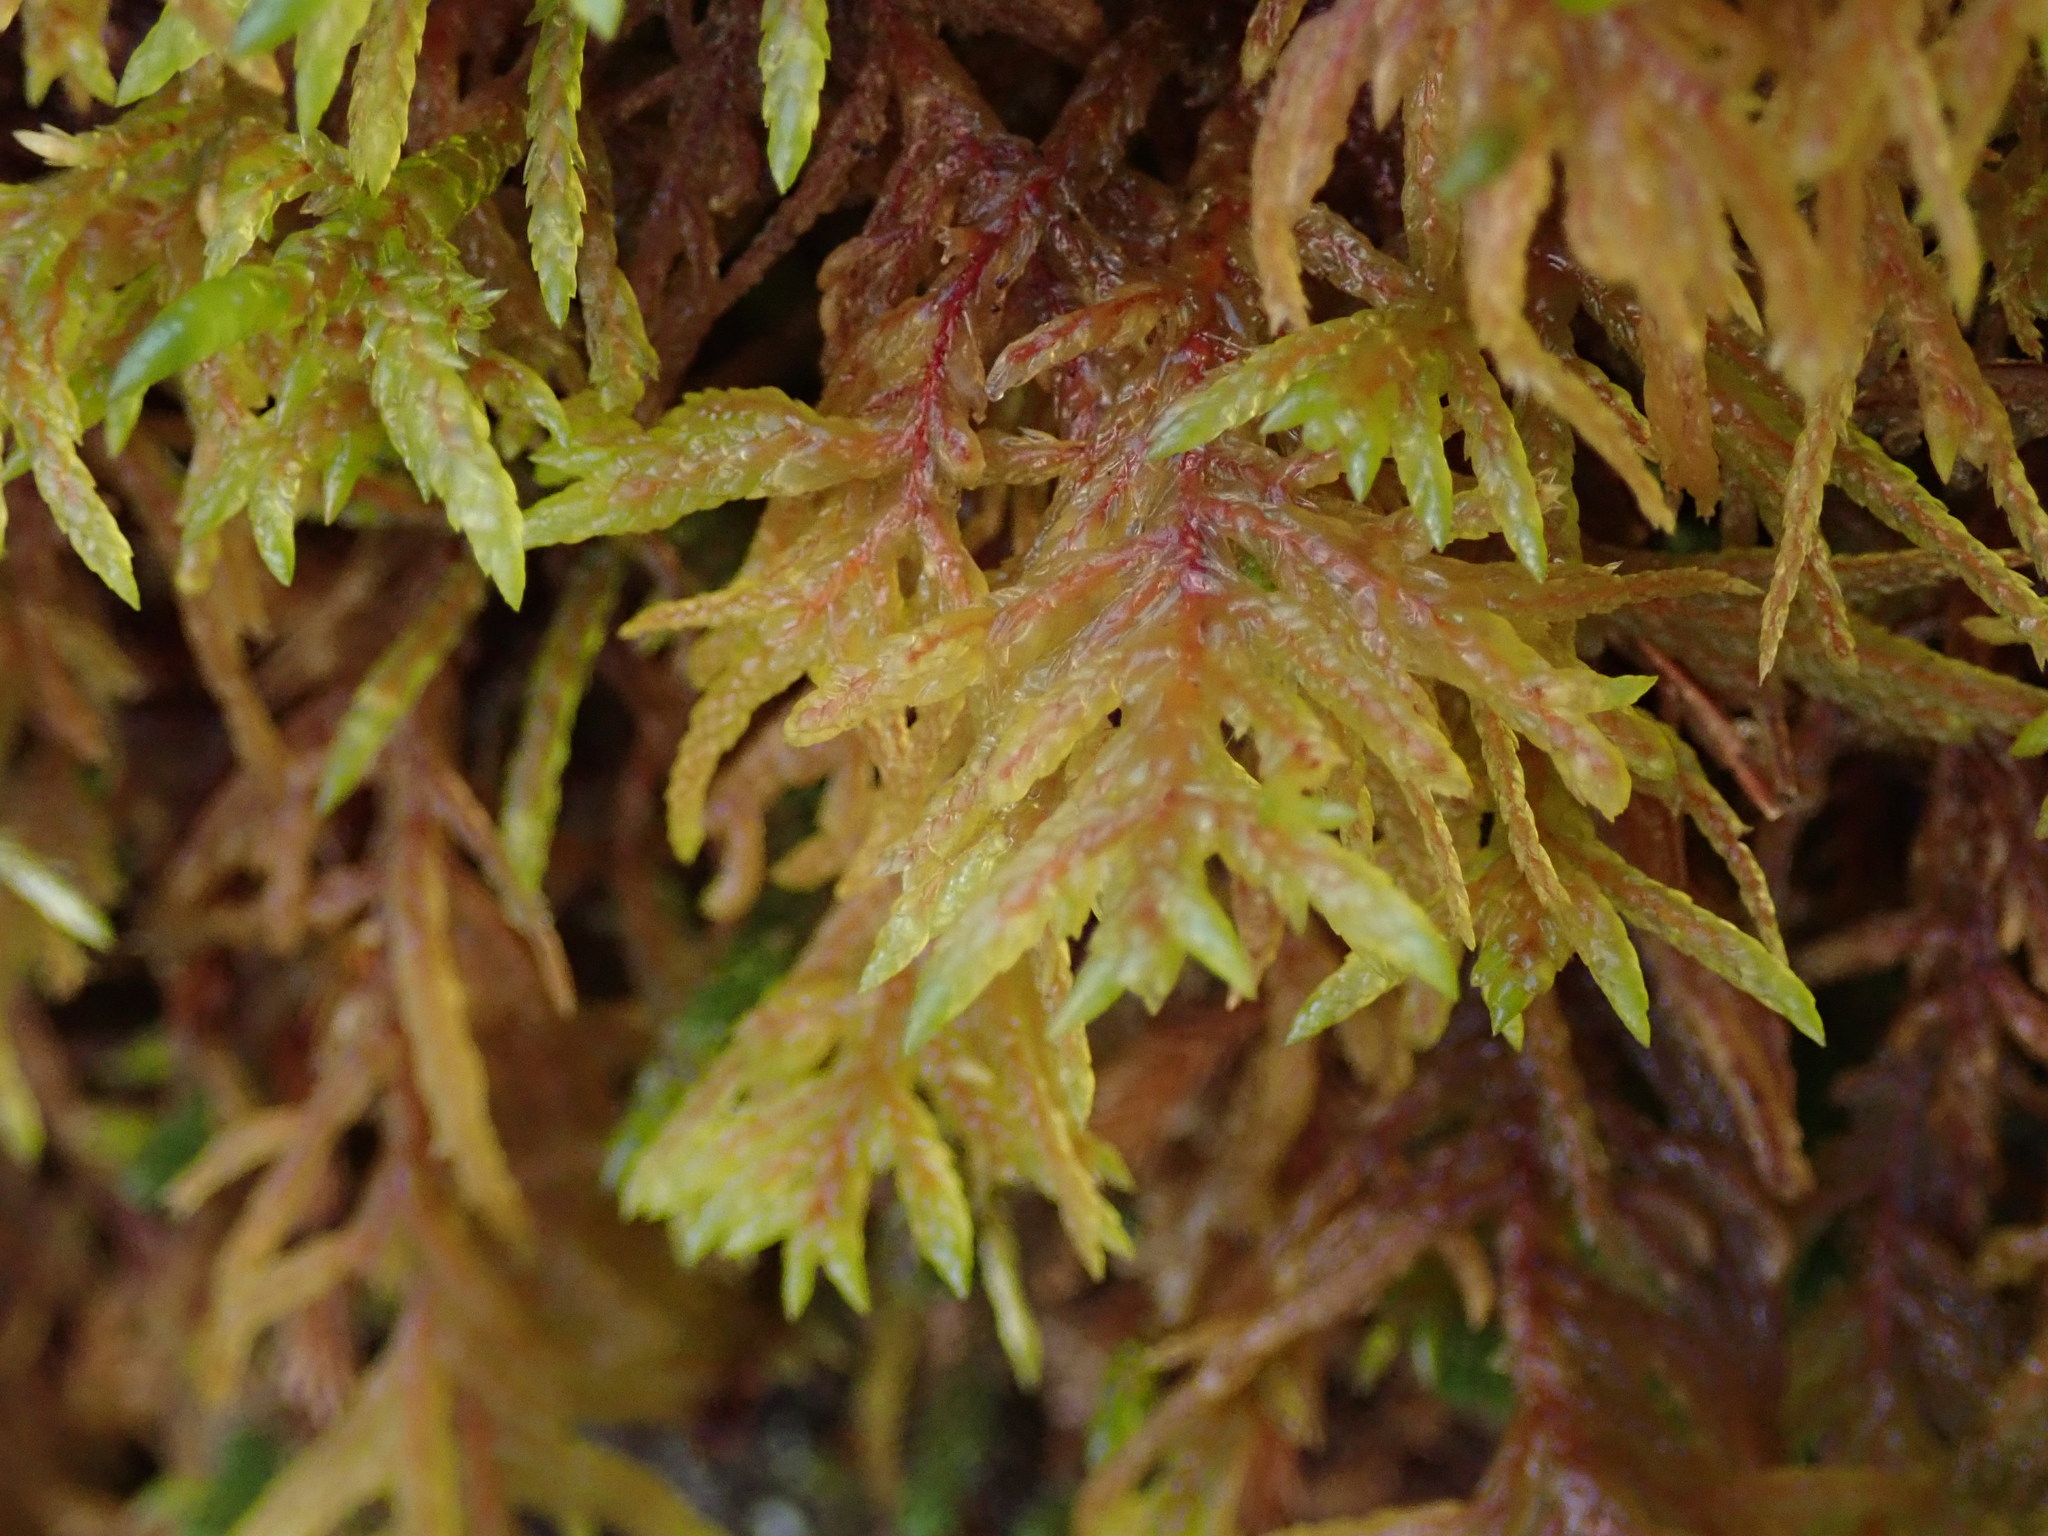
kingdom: Plantae
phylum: Bryophyta
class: Bryopsida
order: Hypnales
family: Hylocomiaceae
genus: Pleurozium
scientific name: Pleurozium schreberi
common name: Red-stemmed feather moss
